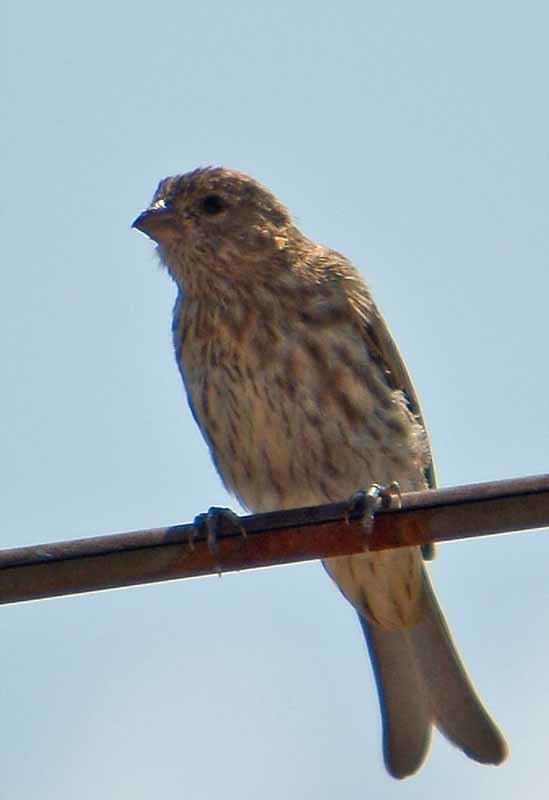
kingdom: Animalia
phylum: Chordata
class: Aves
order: Passeriformes
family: Fringillidae
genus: Haemorhous
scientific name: Haemorhous mexicanus
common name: House finch
